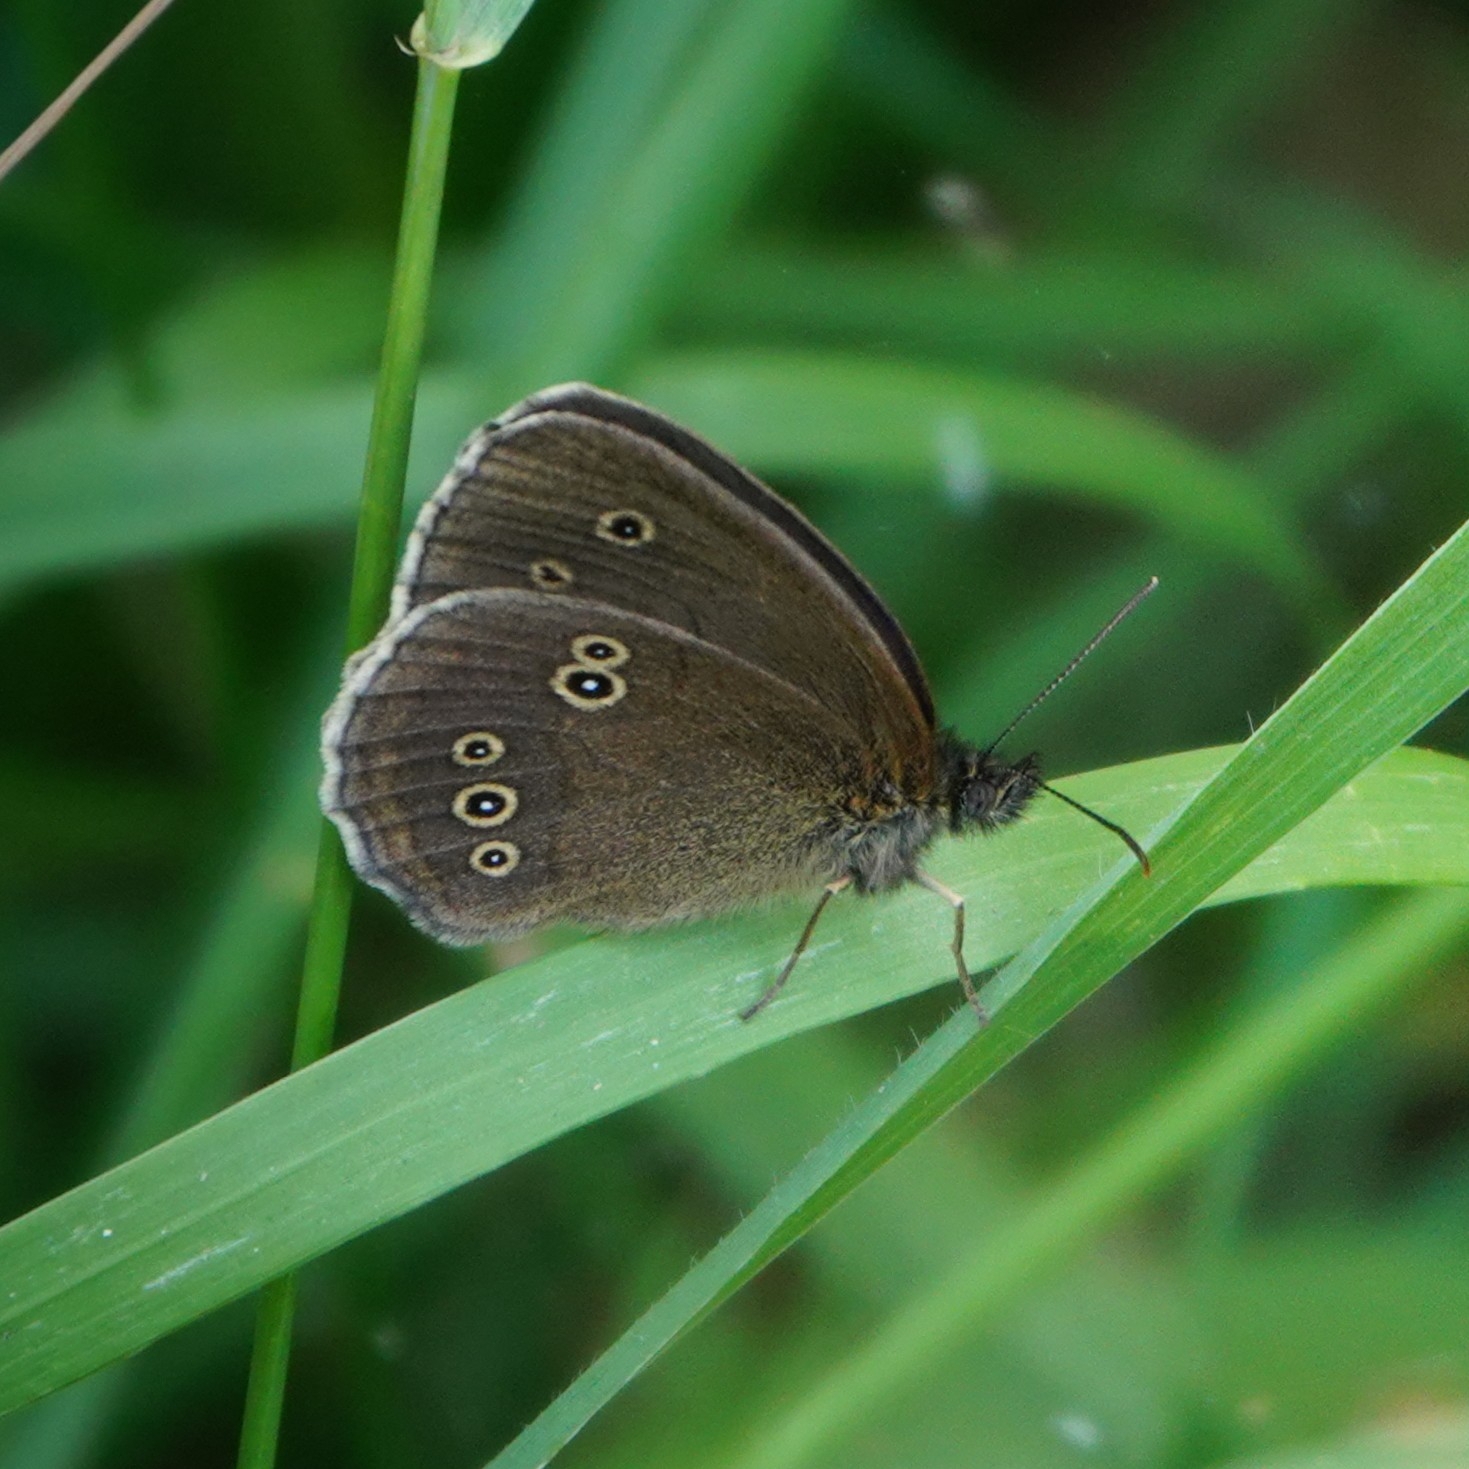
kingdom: Animalia
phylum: Arthropoda
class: Insecta
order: Lepidoptera
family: Nymphalidae
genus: Aphantopus
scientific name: Aphantopus hyperantus
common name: Ringlet
